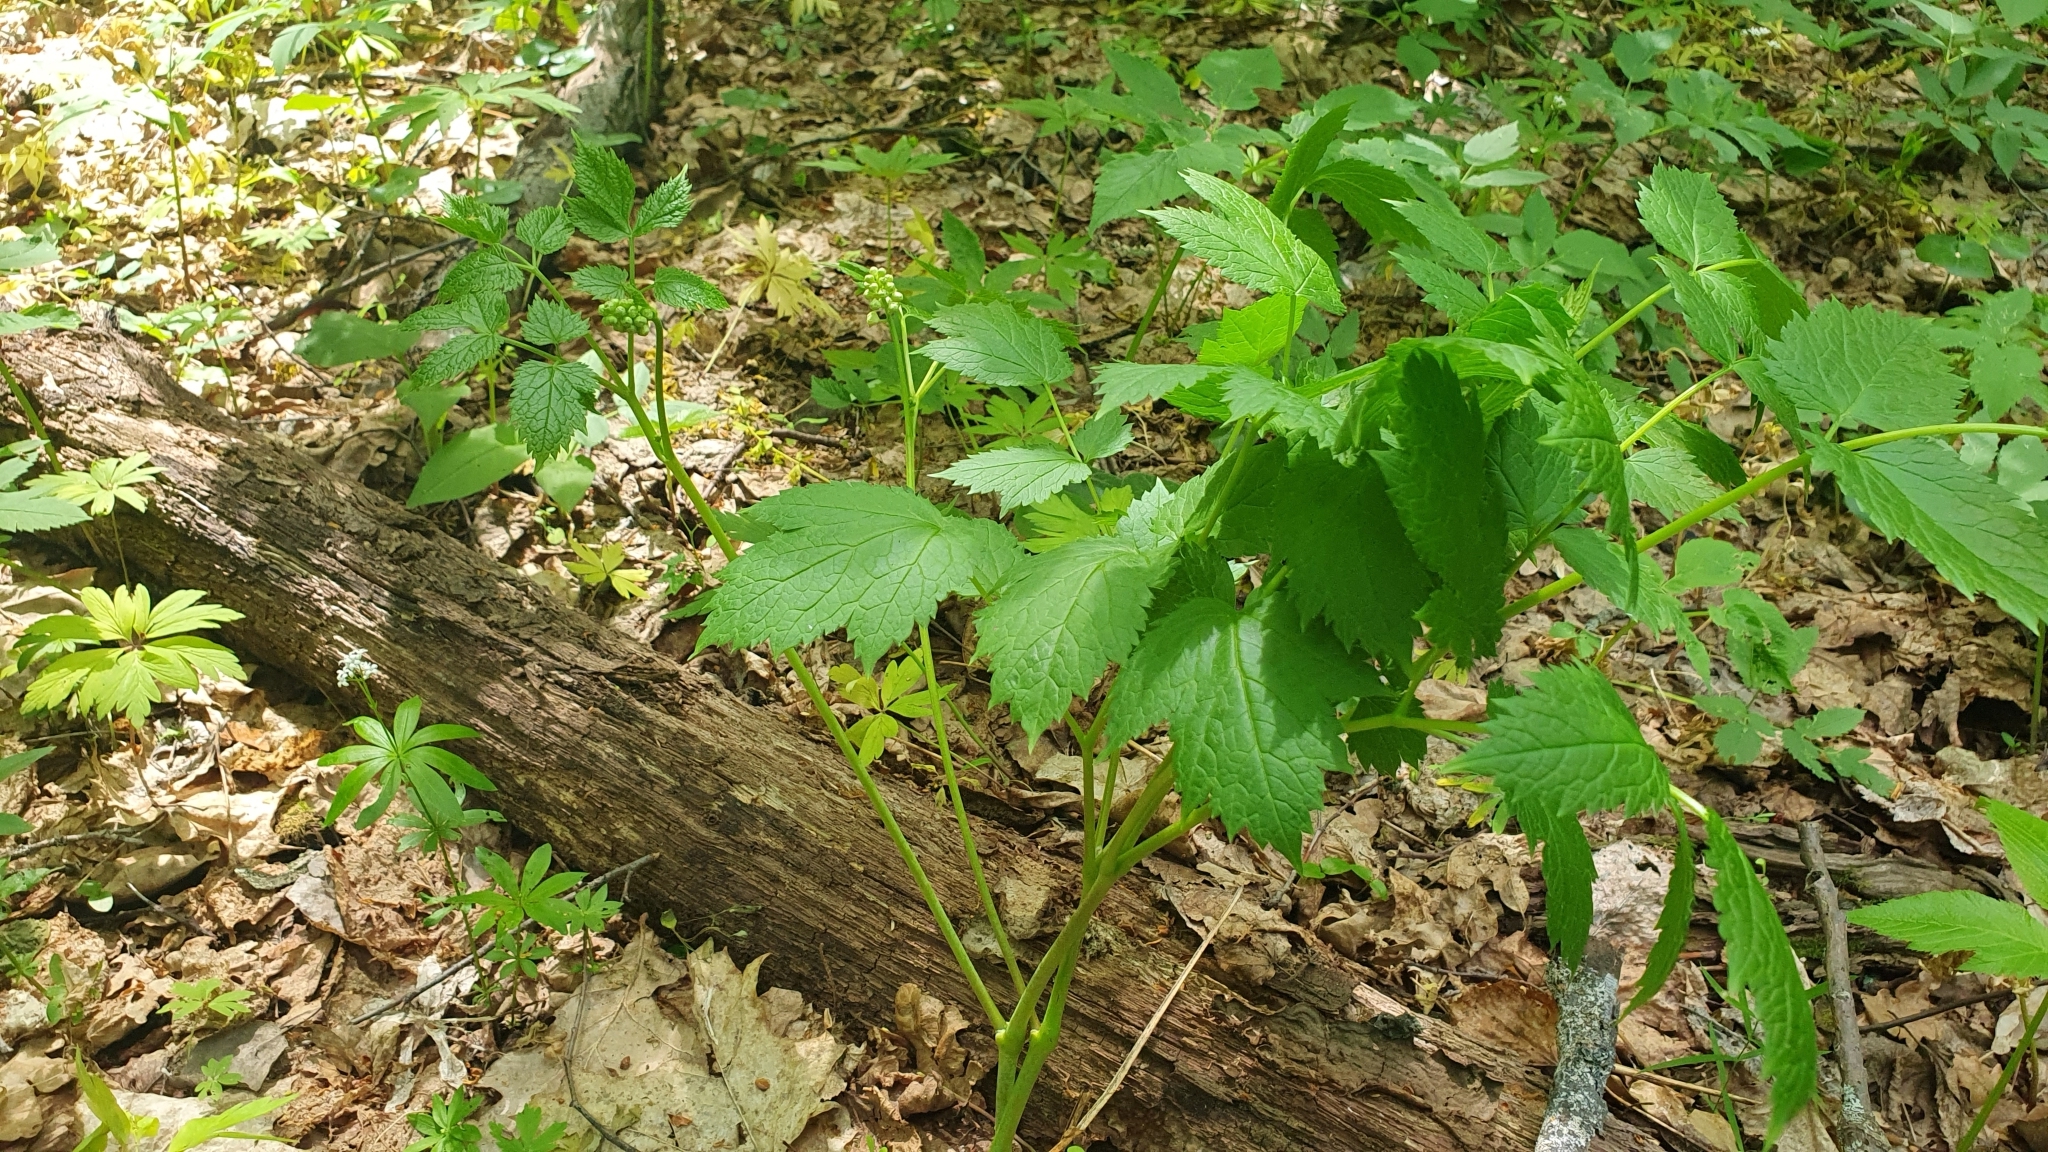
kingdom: Plantae
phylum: Tracheophyta
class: Magnoliopsida
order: Ranunculales
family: Ranunculaceae
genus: Actaea
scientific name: Actaea spicata
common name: Baneberry
